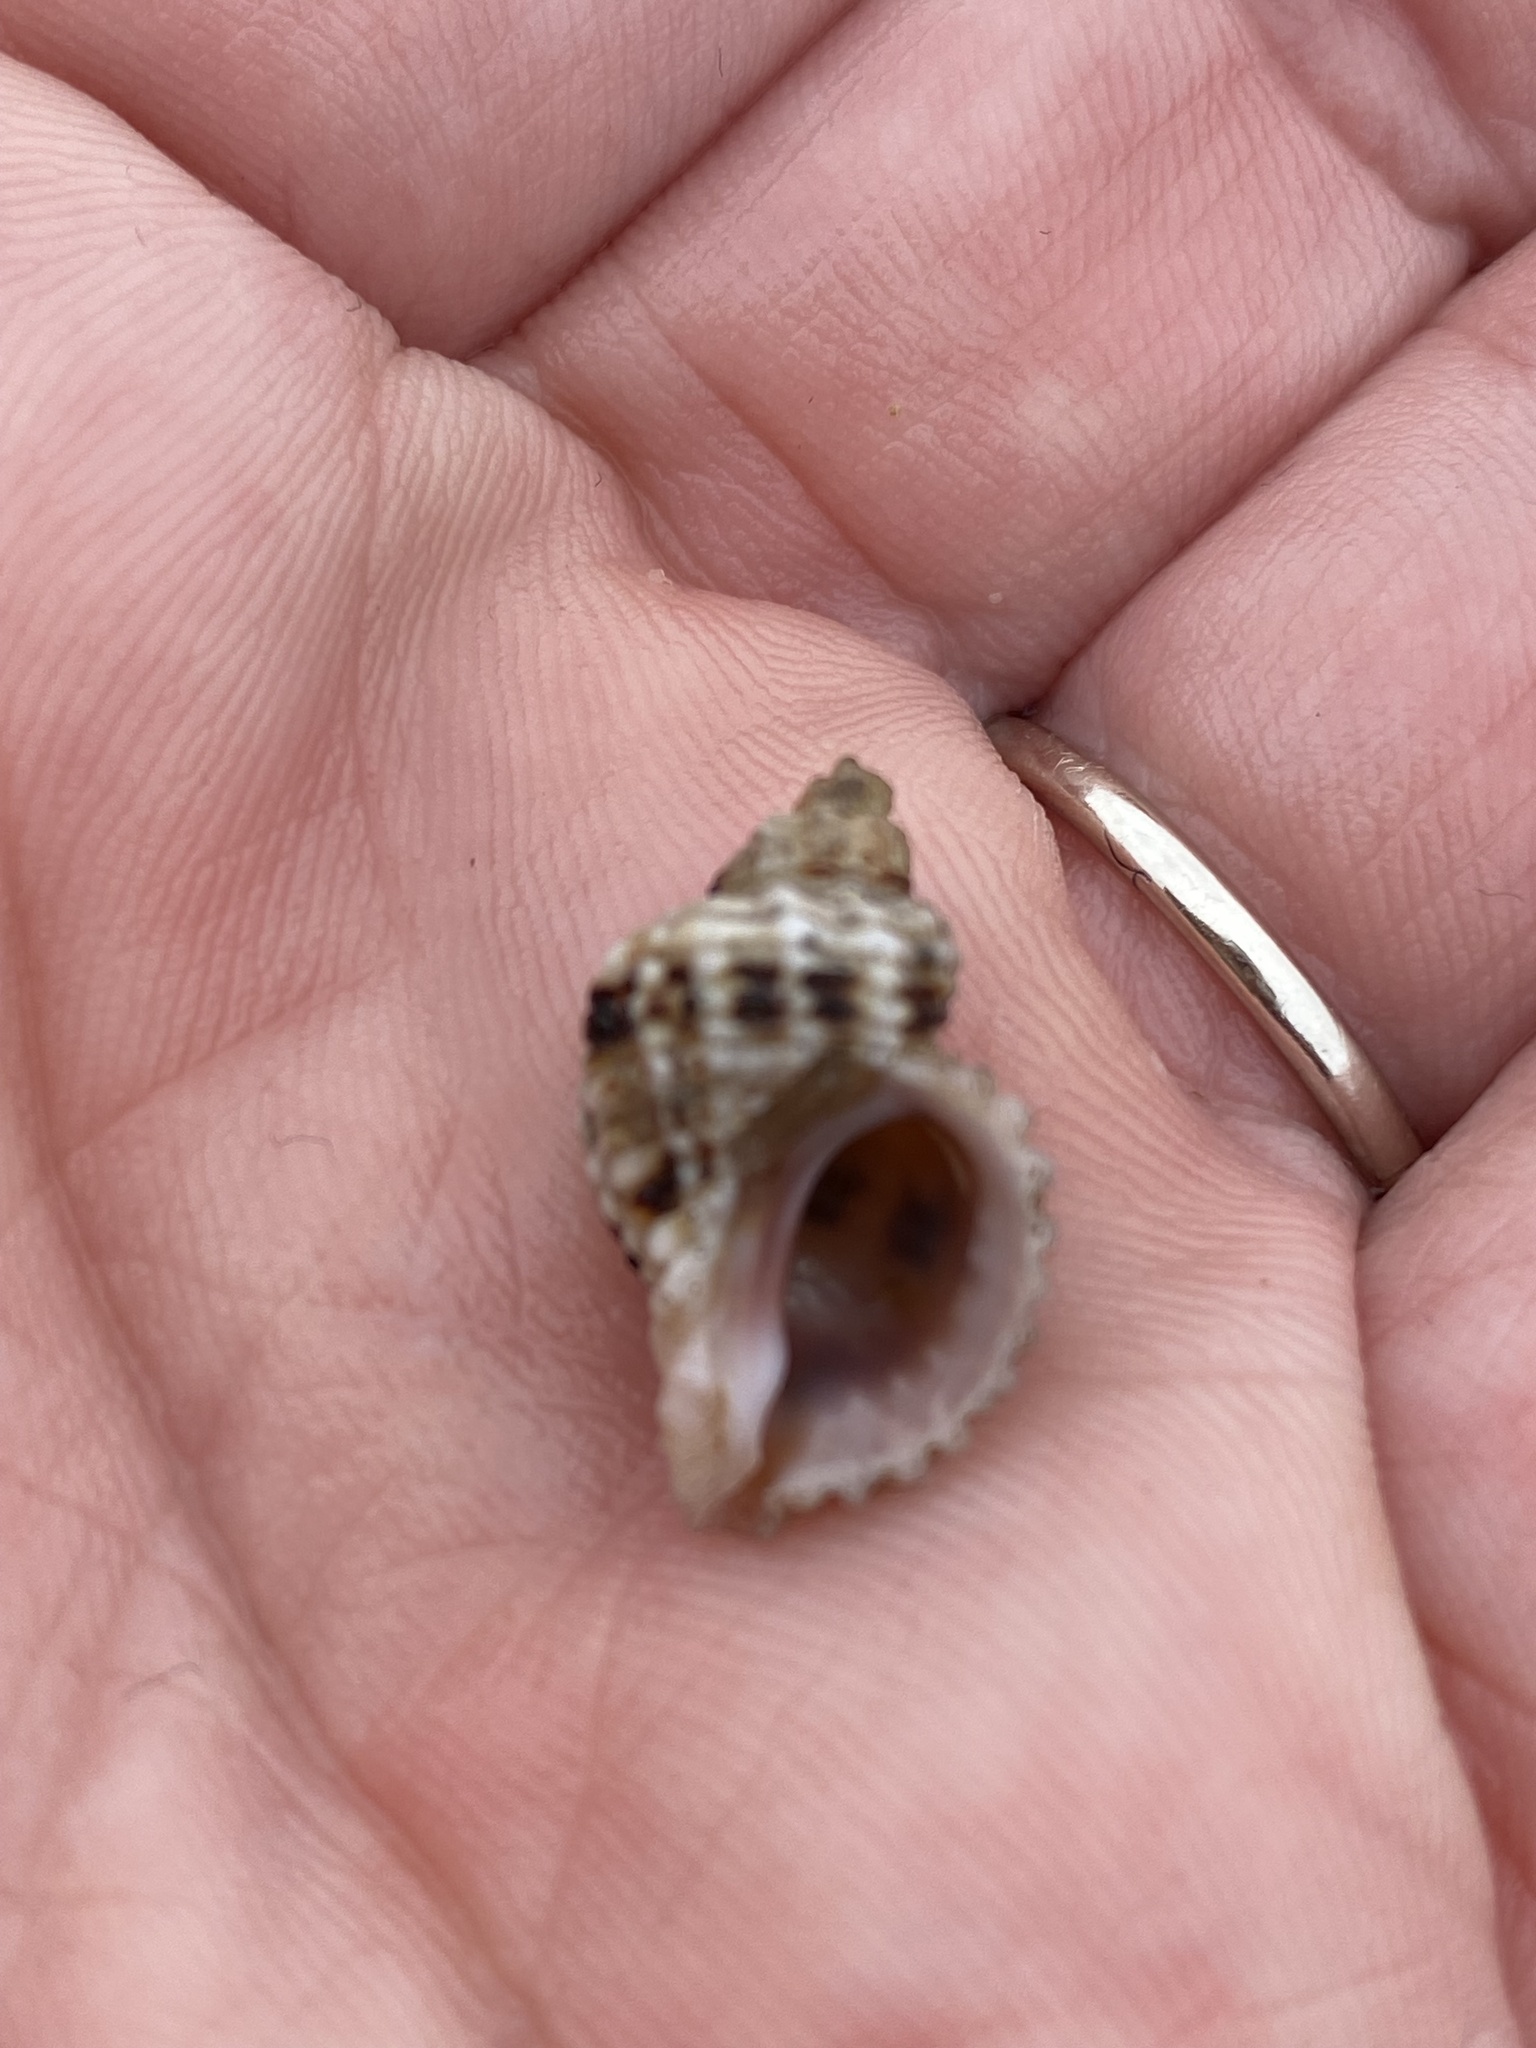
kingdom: Animalia
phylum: Mollusca
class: Gastropoda
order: Neogastropoda
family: Muricidae
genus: Paciocinebrina
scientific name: Paciocinebrina circumtexta
